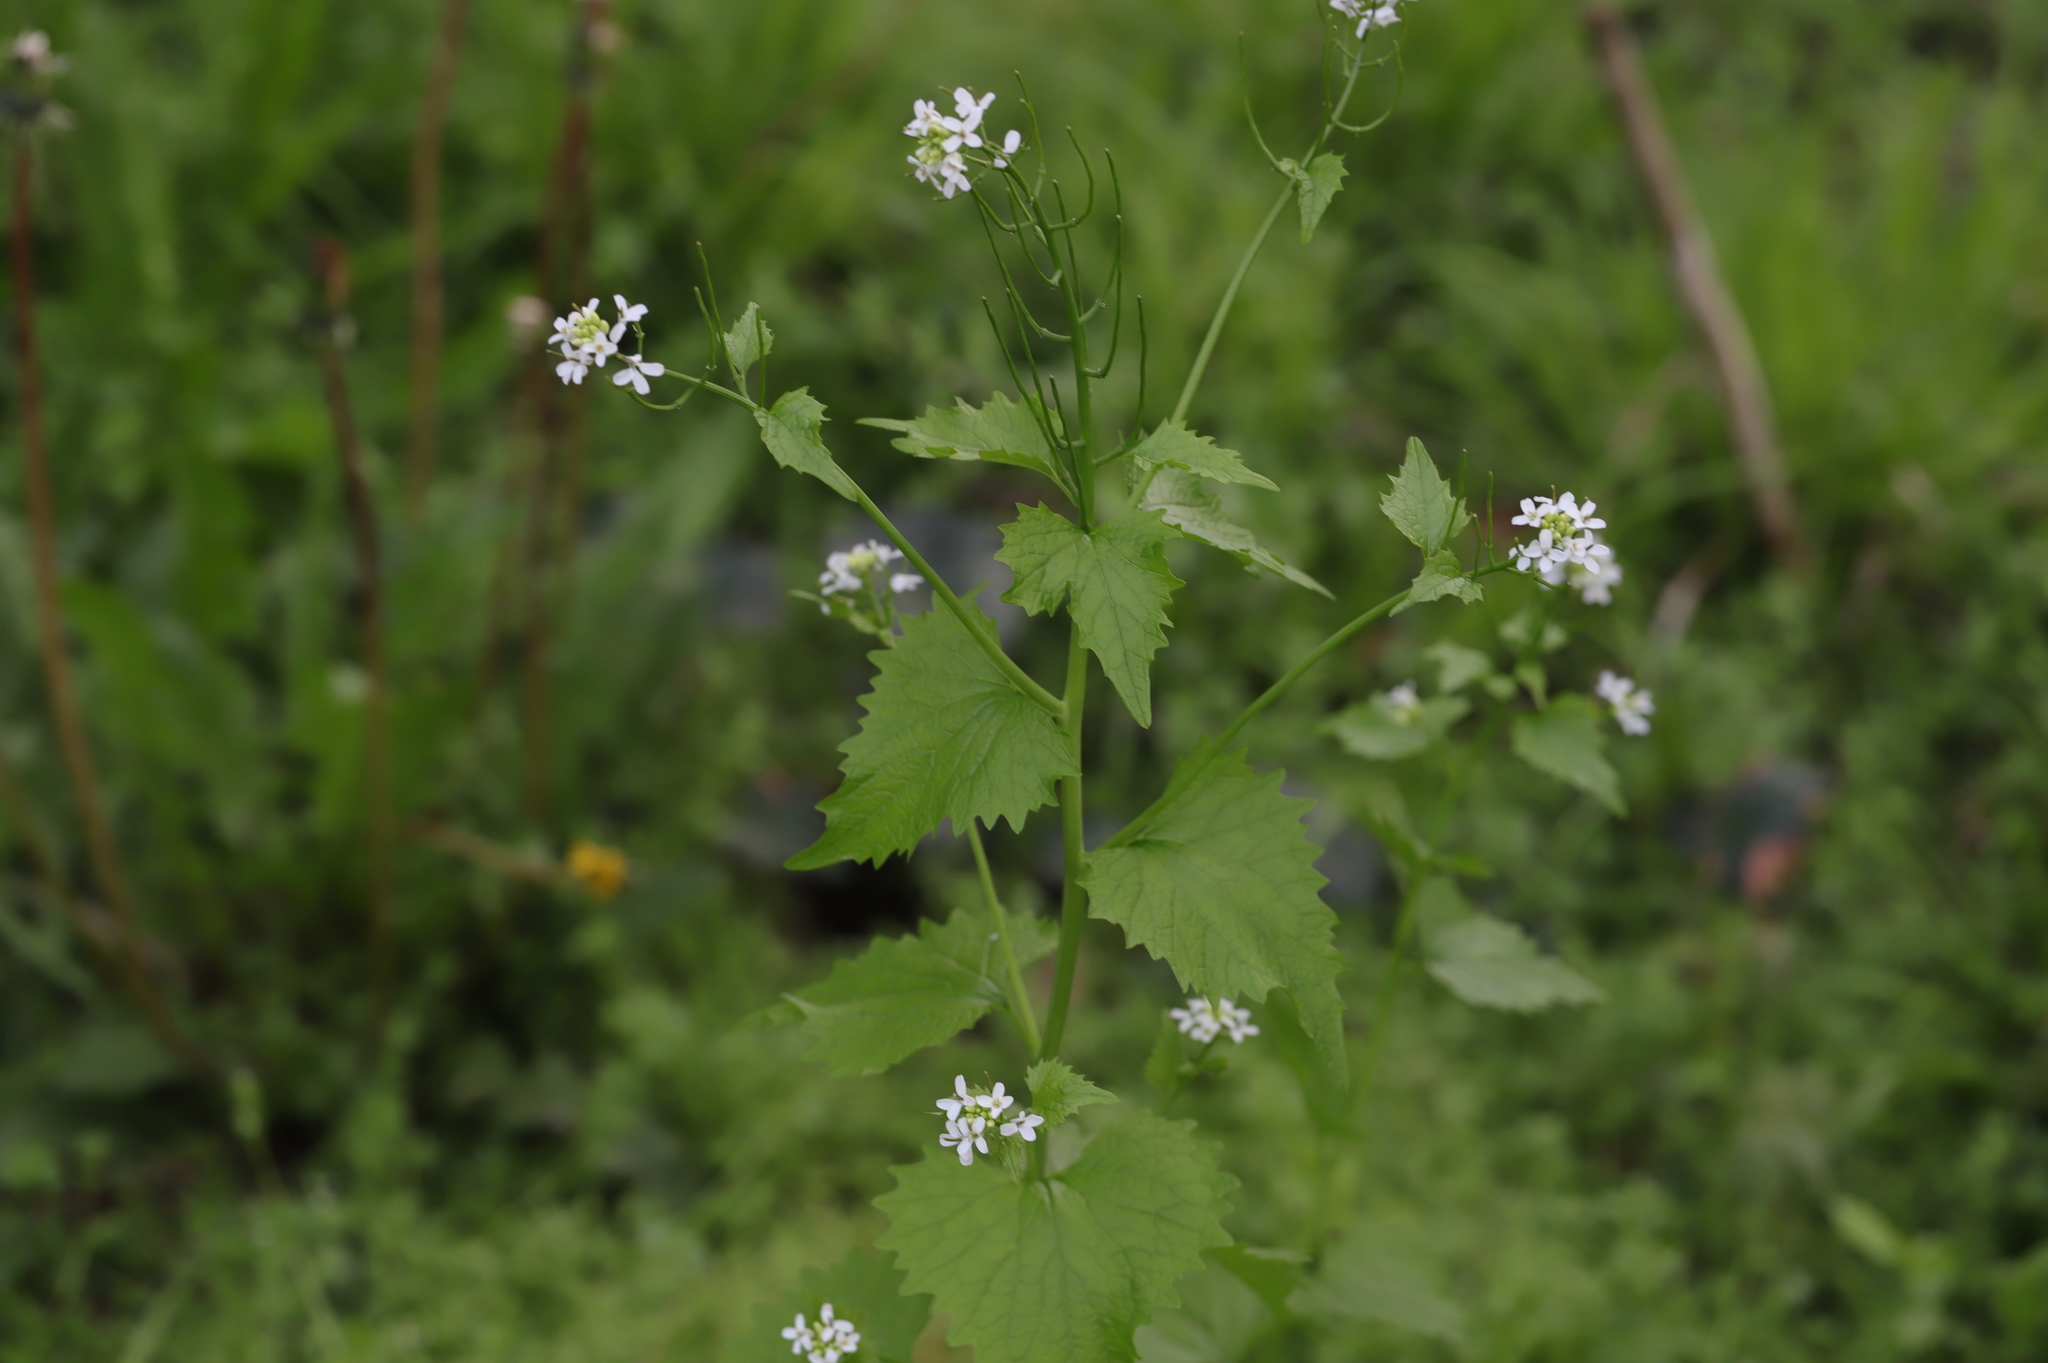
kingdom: Plantae
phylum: Tracheophyta
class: Magnoliopsida
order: Brassicales
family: Brassicaceae
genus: Alliaria
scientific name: Alliaria petiolata
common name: Garlic mustard
